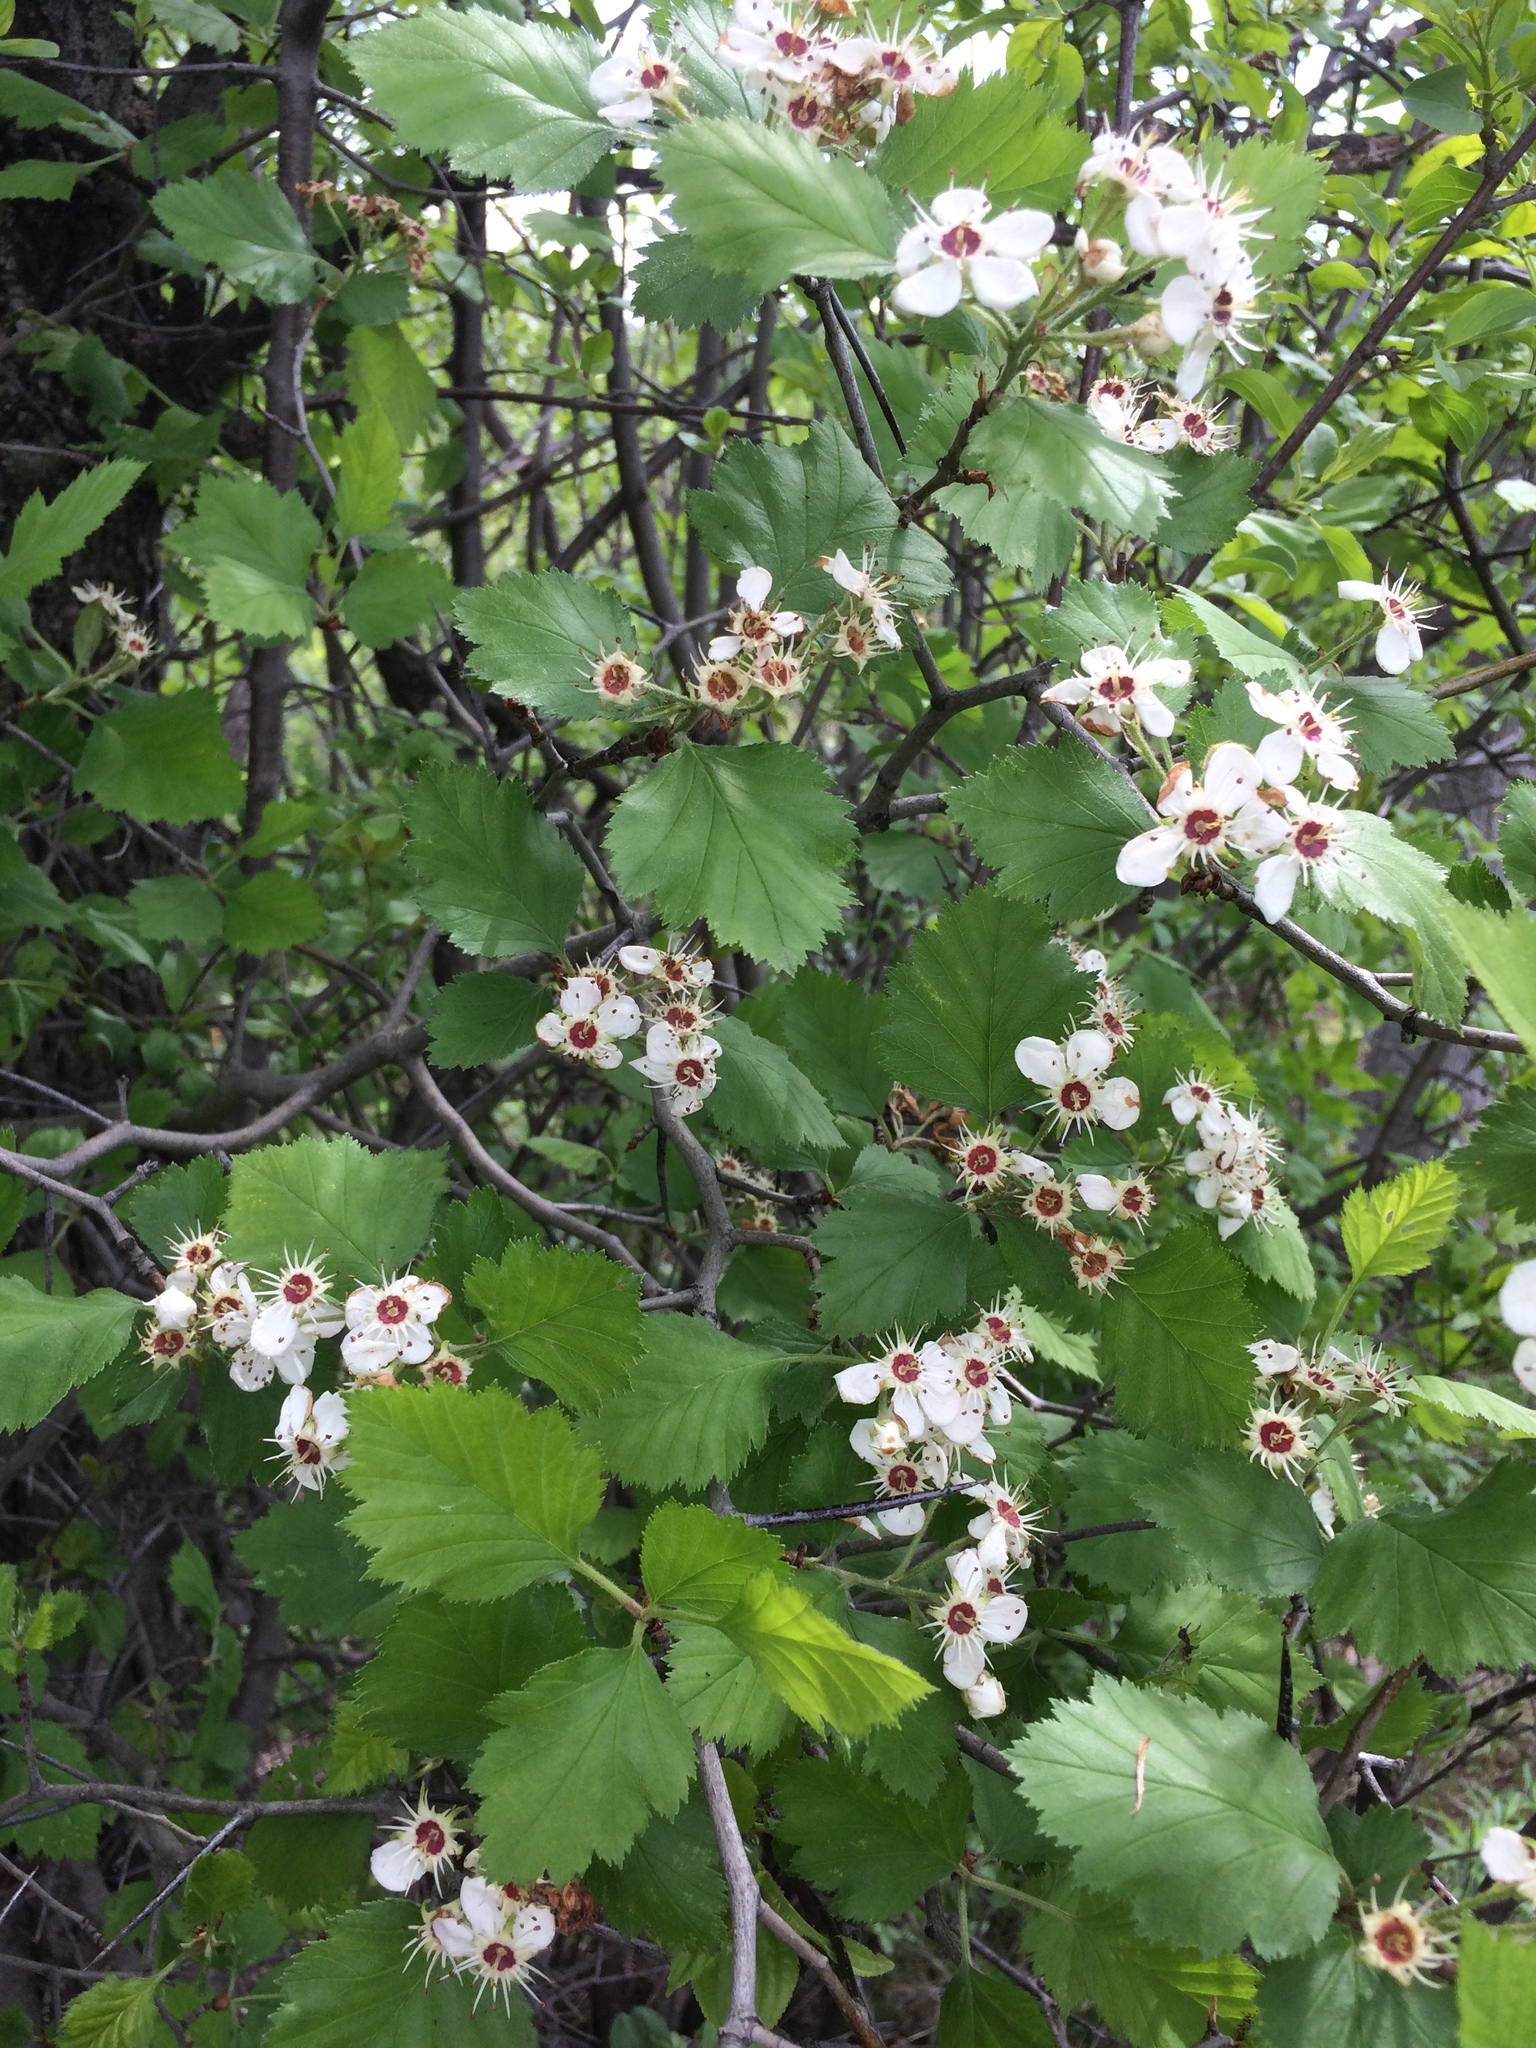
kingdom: Plantae
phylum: Tracheophyta
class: Magnoliopsida
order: Rosales
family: Rosaceae
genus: Crataegus
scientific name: Crataegus submollis
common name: Hairy cockspurthorn
